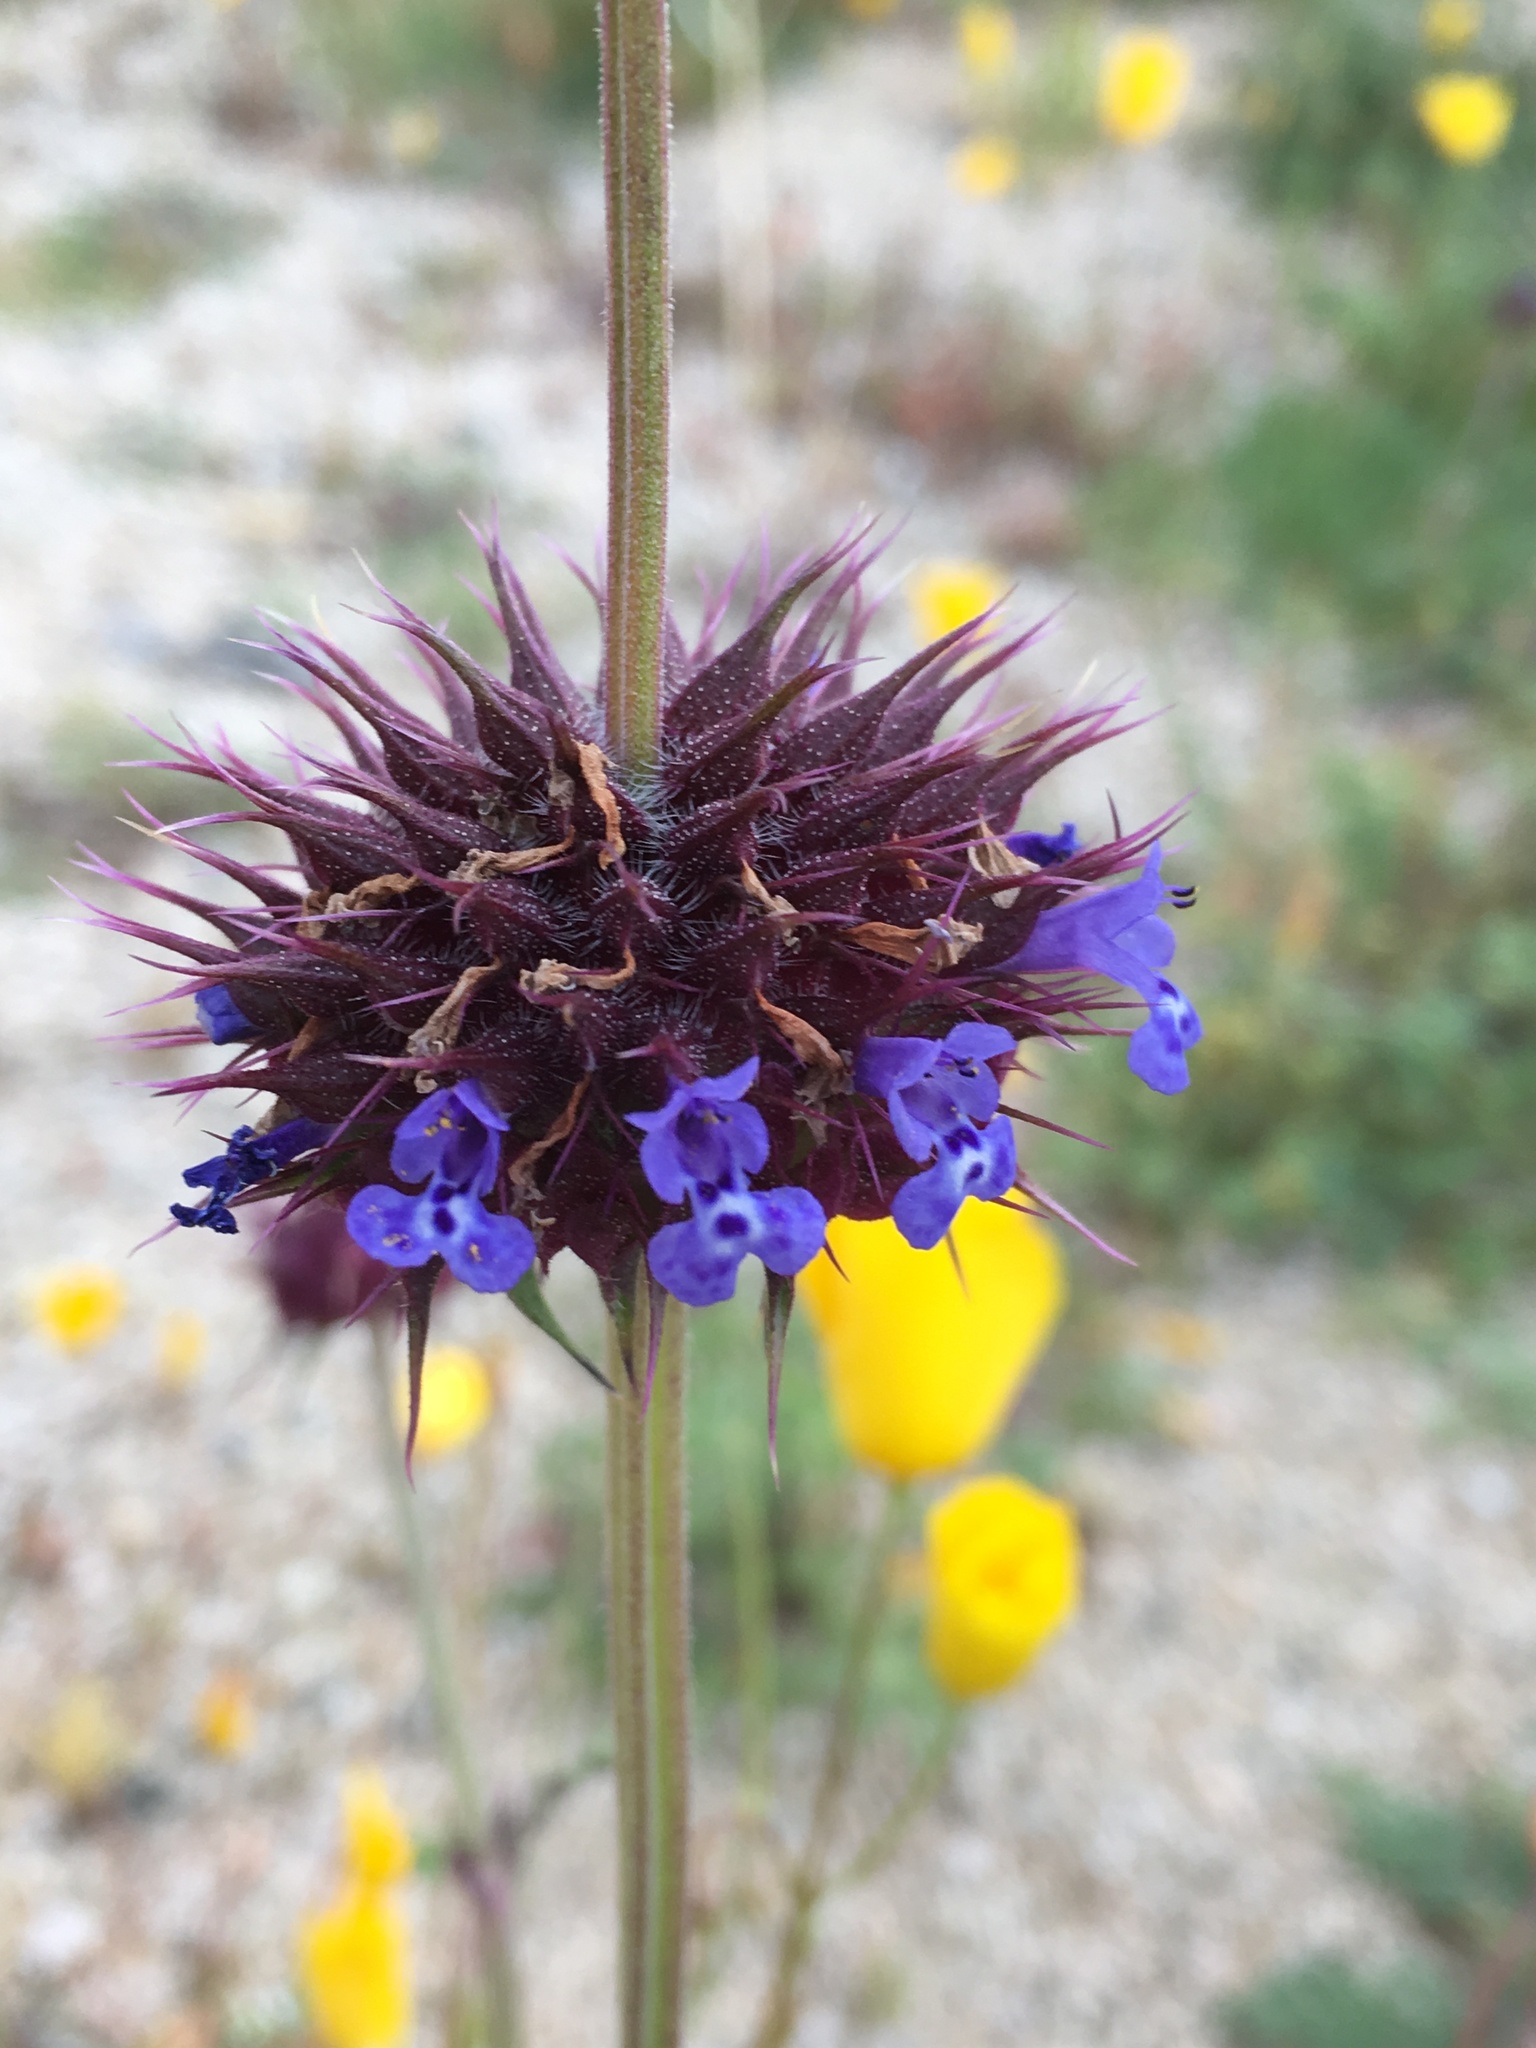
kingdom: Plantae
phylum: Tracheophyta
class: Magnoliopsida
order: Lamiales
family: Lamiaceae
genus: Salvia
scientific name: Salvia columbariae
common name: Chia
